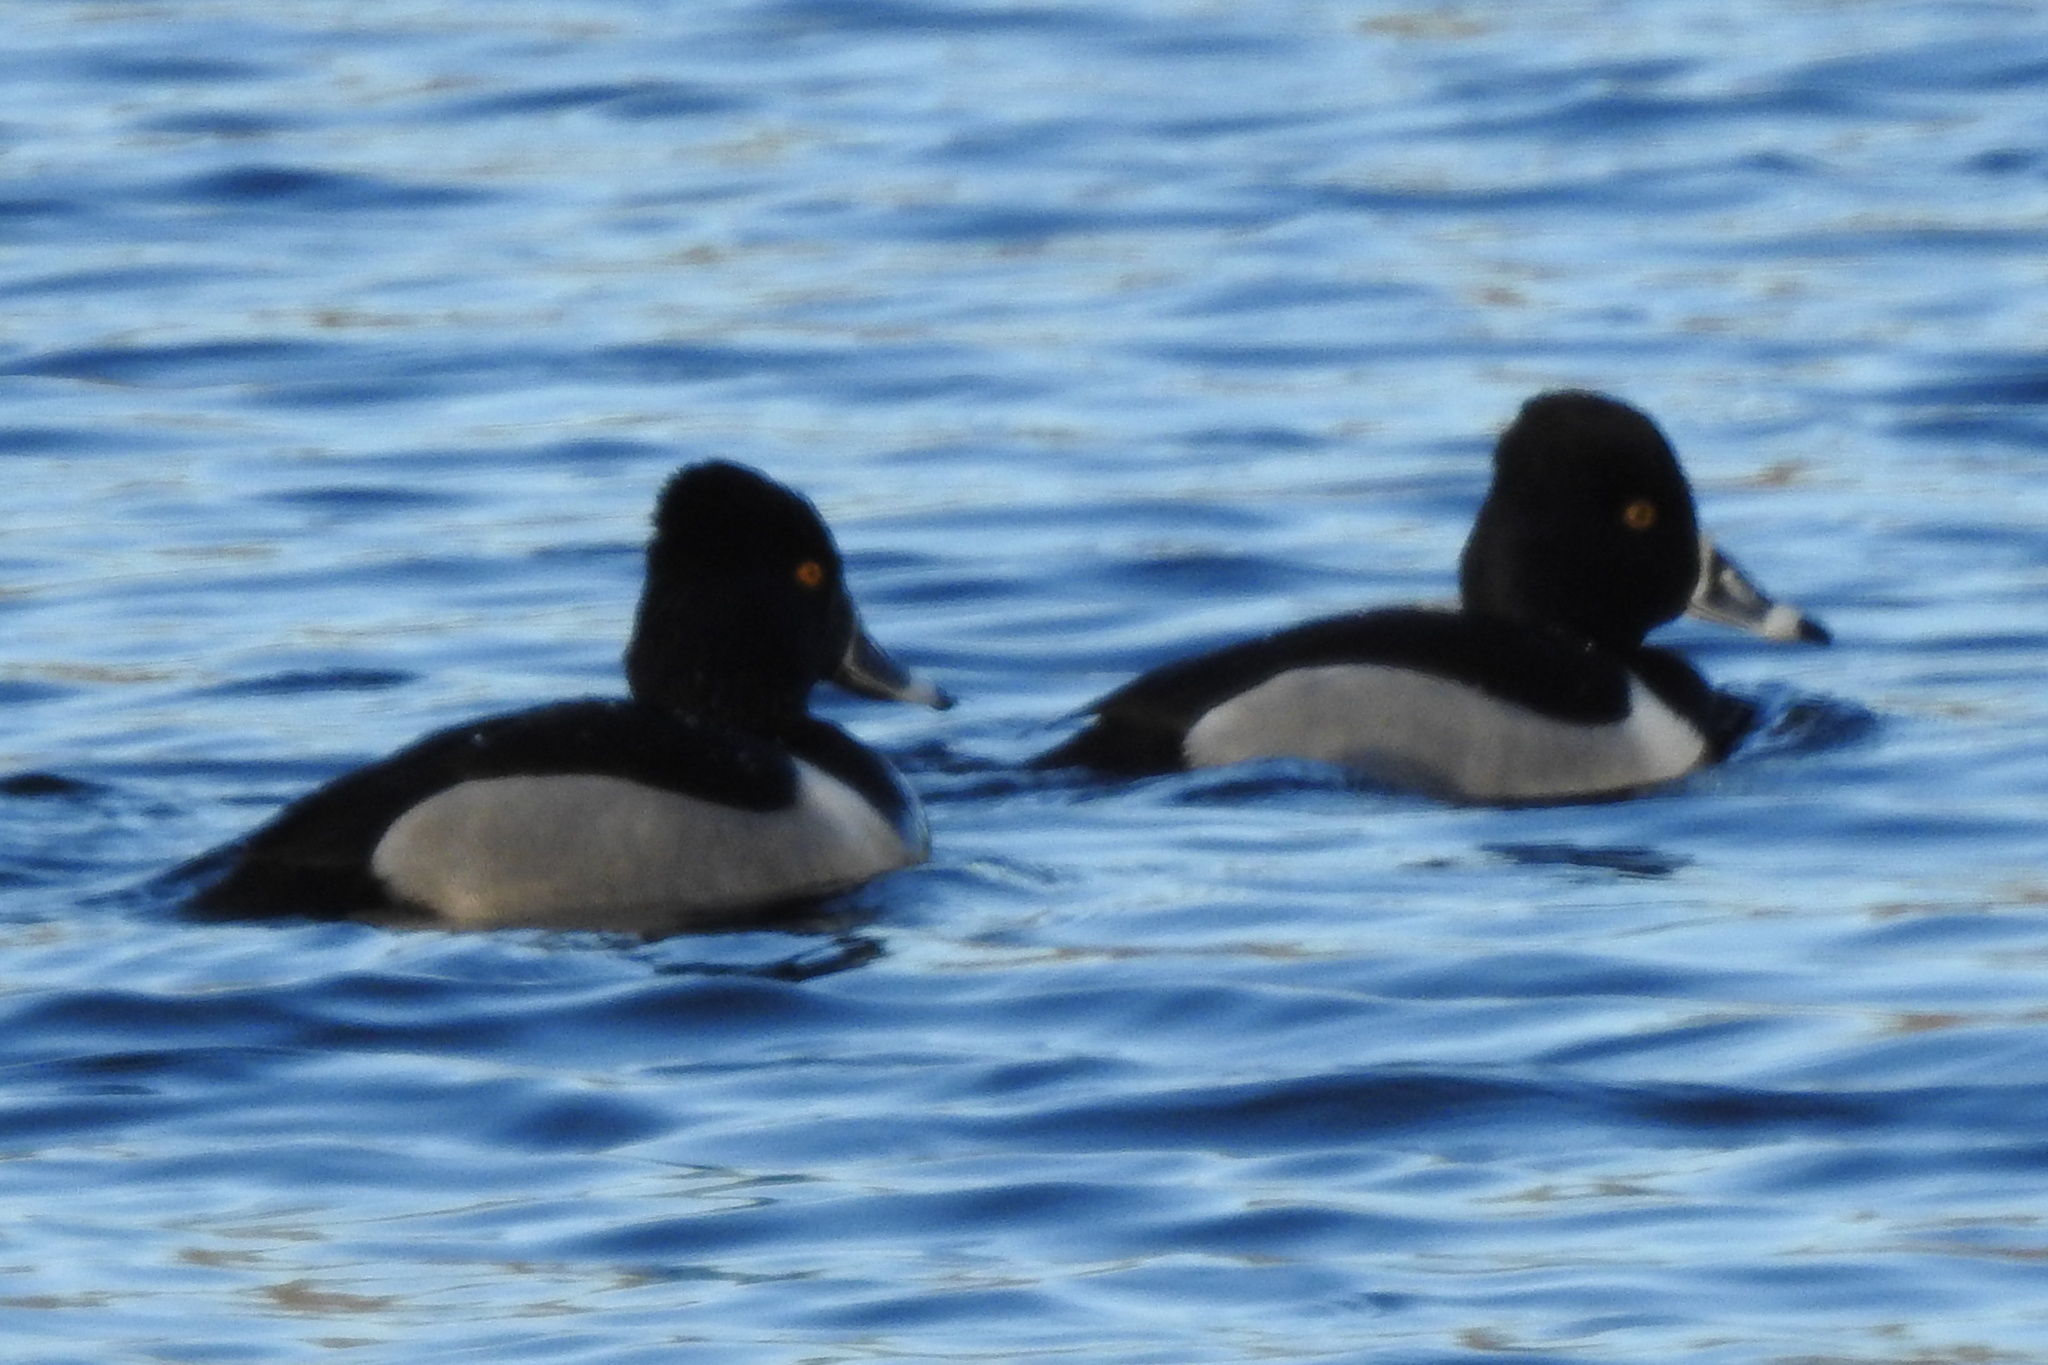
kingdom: Animalia
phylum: Chordata
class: Aves
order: Anseriformes
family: Anatidae
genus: Aythya
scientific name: Aythya collaris
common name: Ring-necked duck
